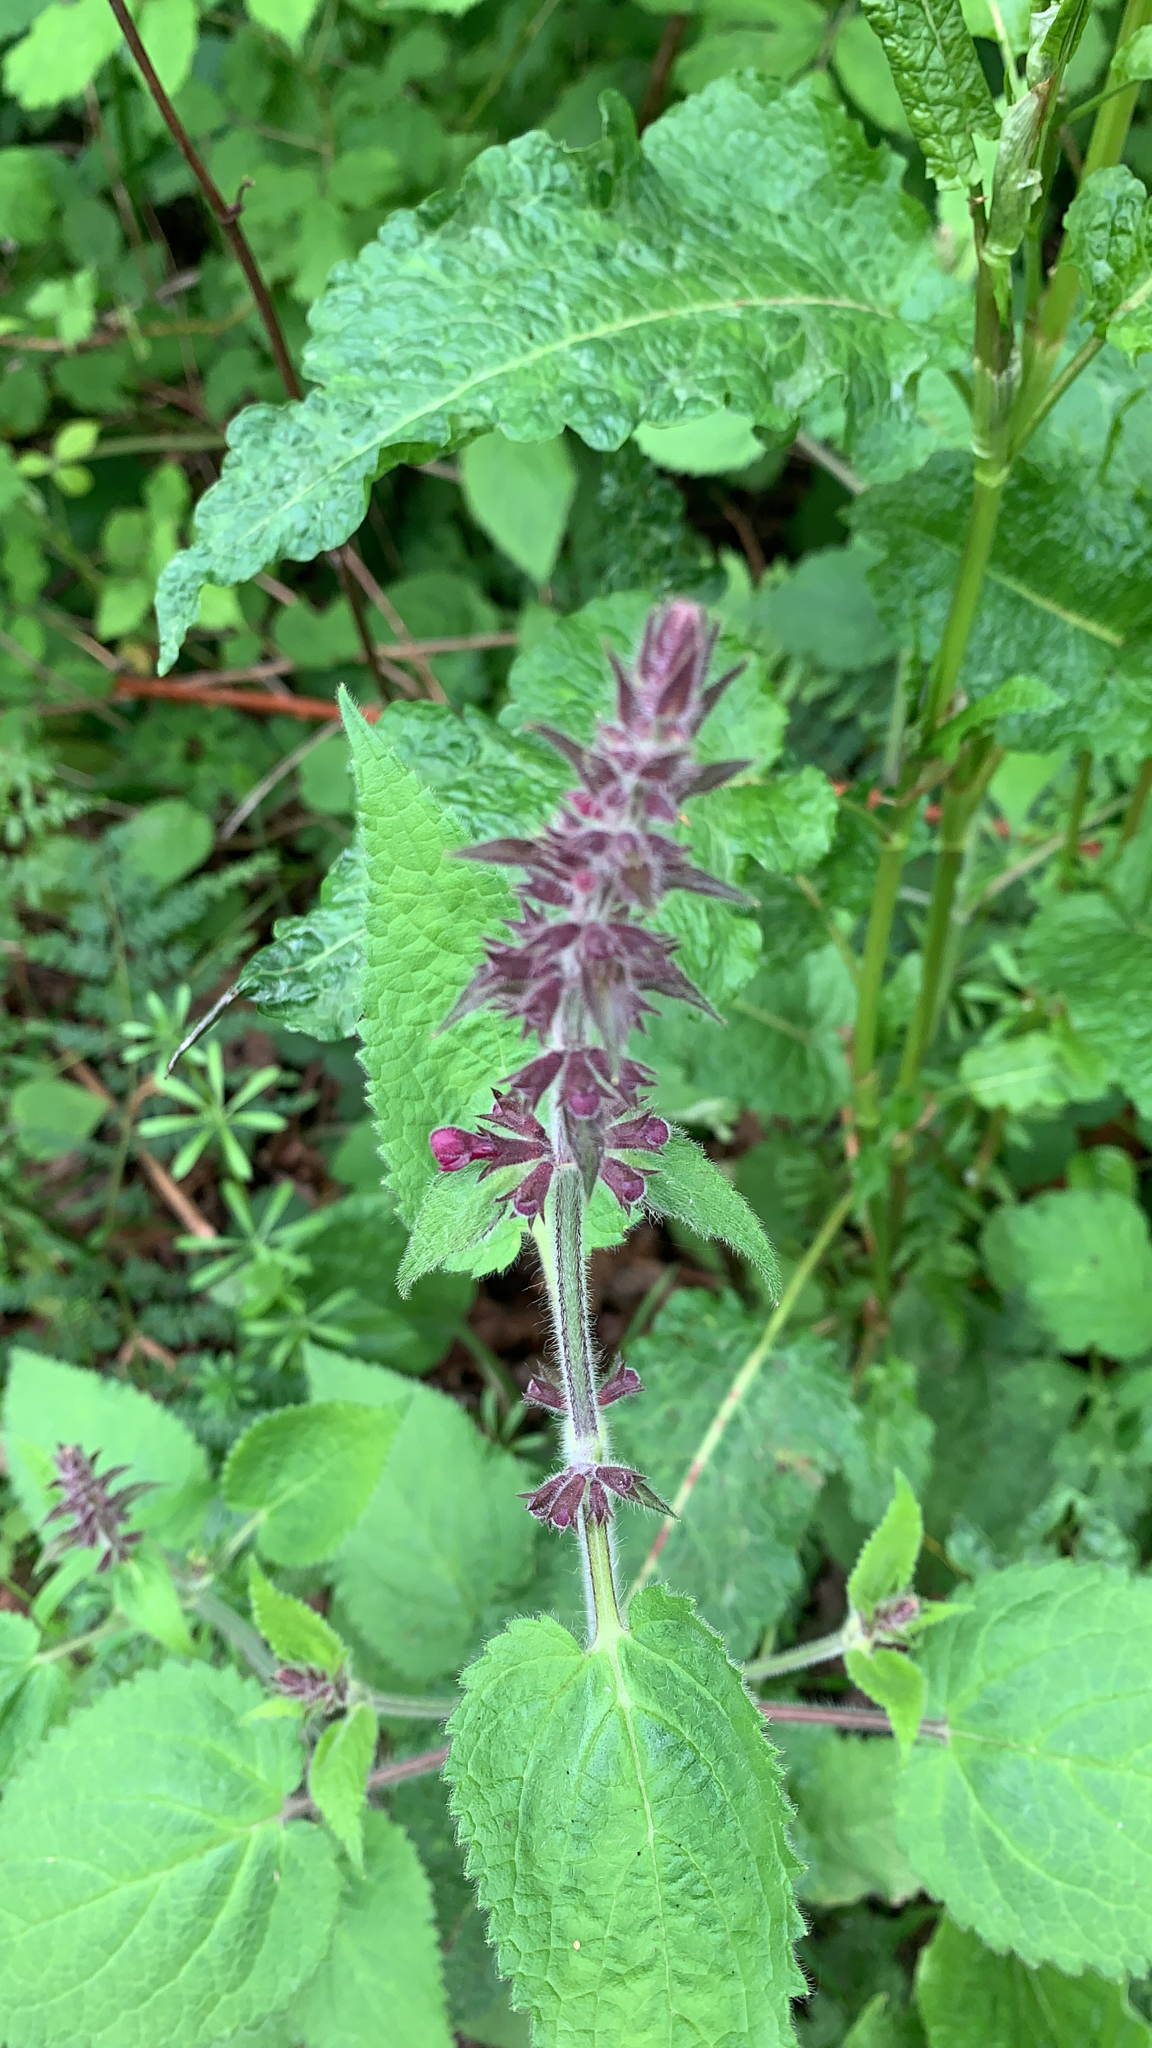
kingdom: Plantae
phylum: Tracheophyta
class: Magnoliopsida
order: Lamiales
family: Lamiaceae
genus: Stachys
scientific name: Stachys sylvatica
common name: Hedge woundwort
